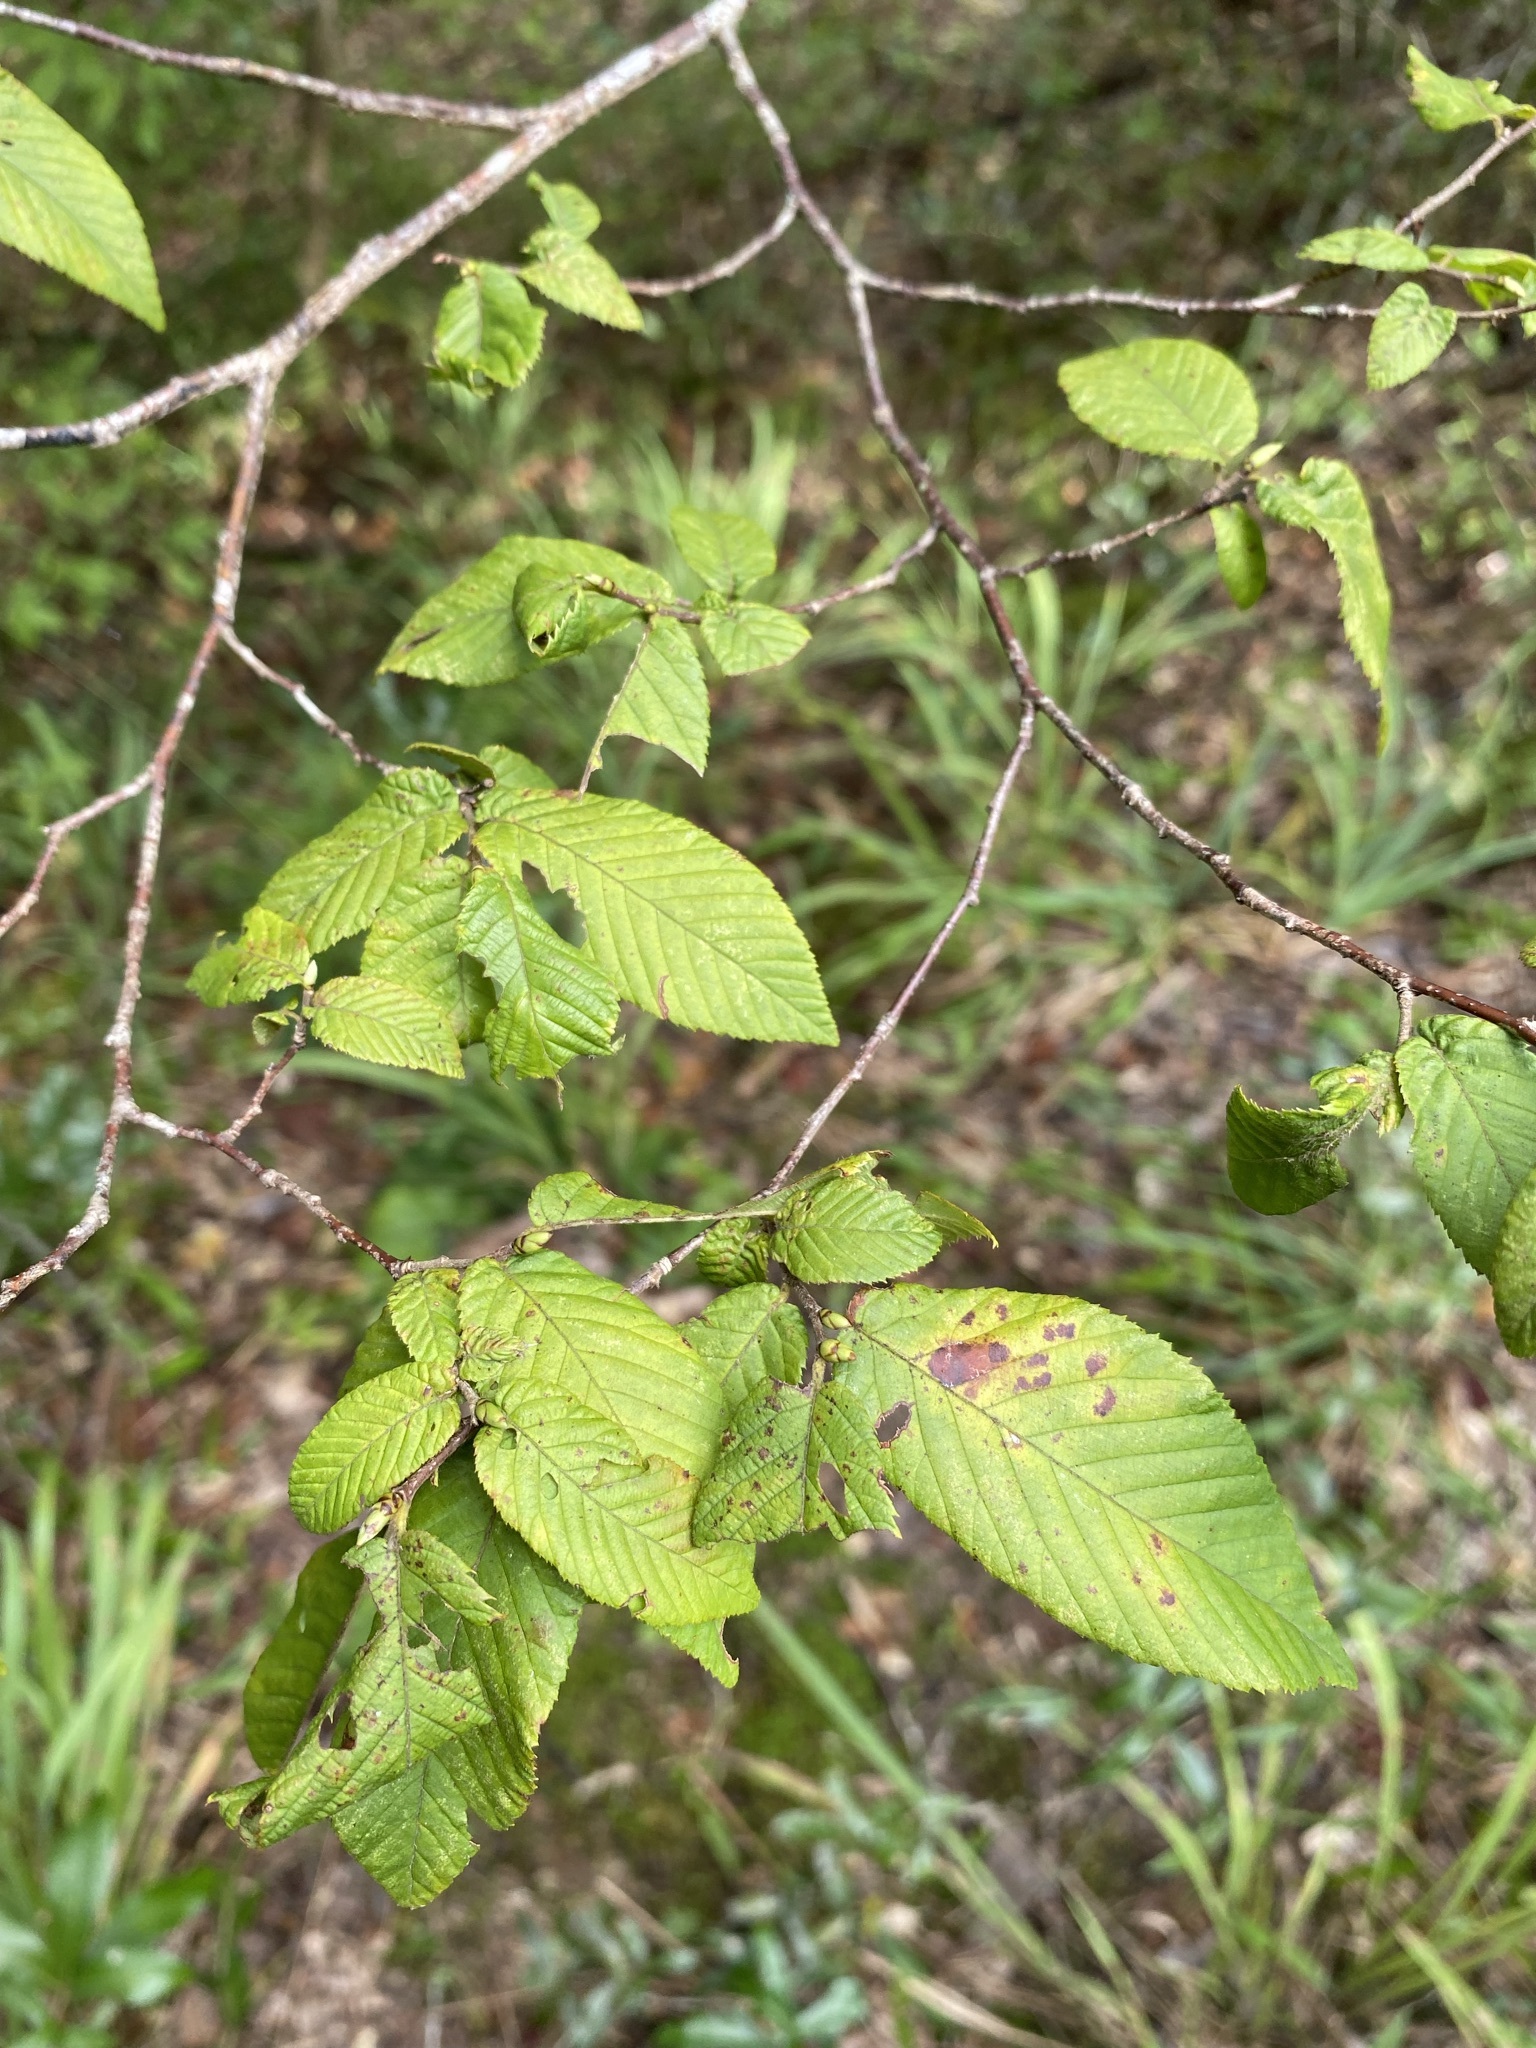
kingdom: Plantae
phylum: Tracheophyta
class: Magnoliopsida
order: Fagales
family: Betulaceae
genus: Ostrya
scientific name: Ostrya virginiana
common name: Ironwood
